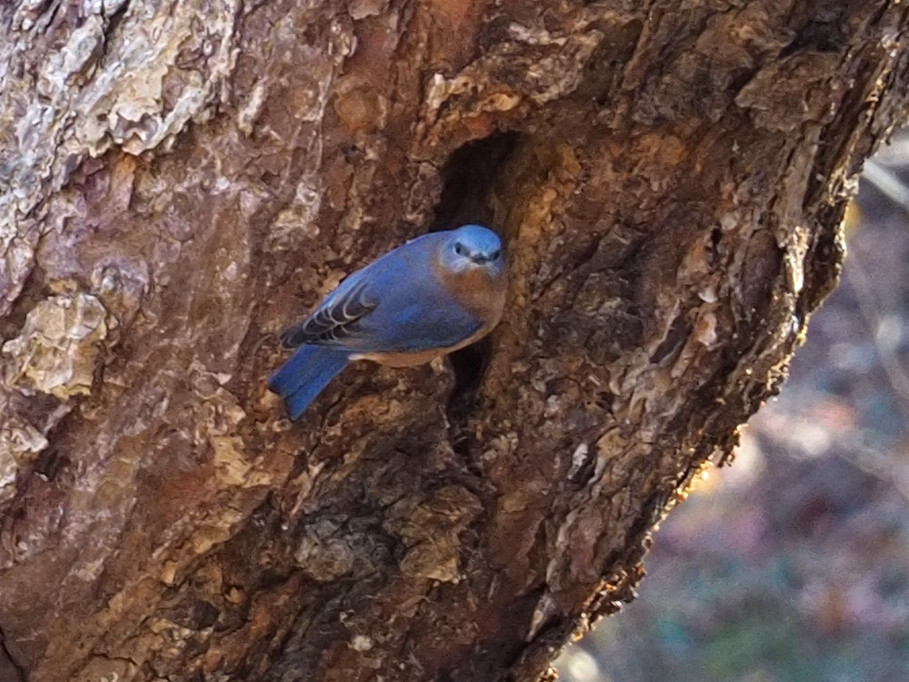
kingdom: Animalia
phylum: Chordata
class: Aves
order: Passeriformes
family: Turdidae
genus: Sialia
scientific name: Sialia sialis
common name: Eastern bluebird
